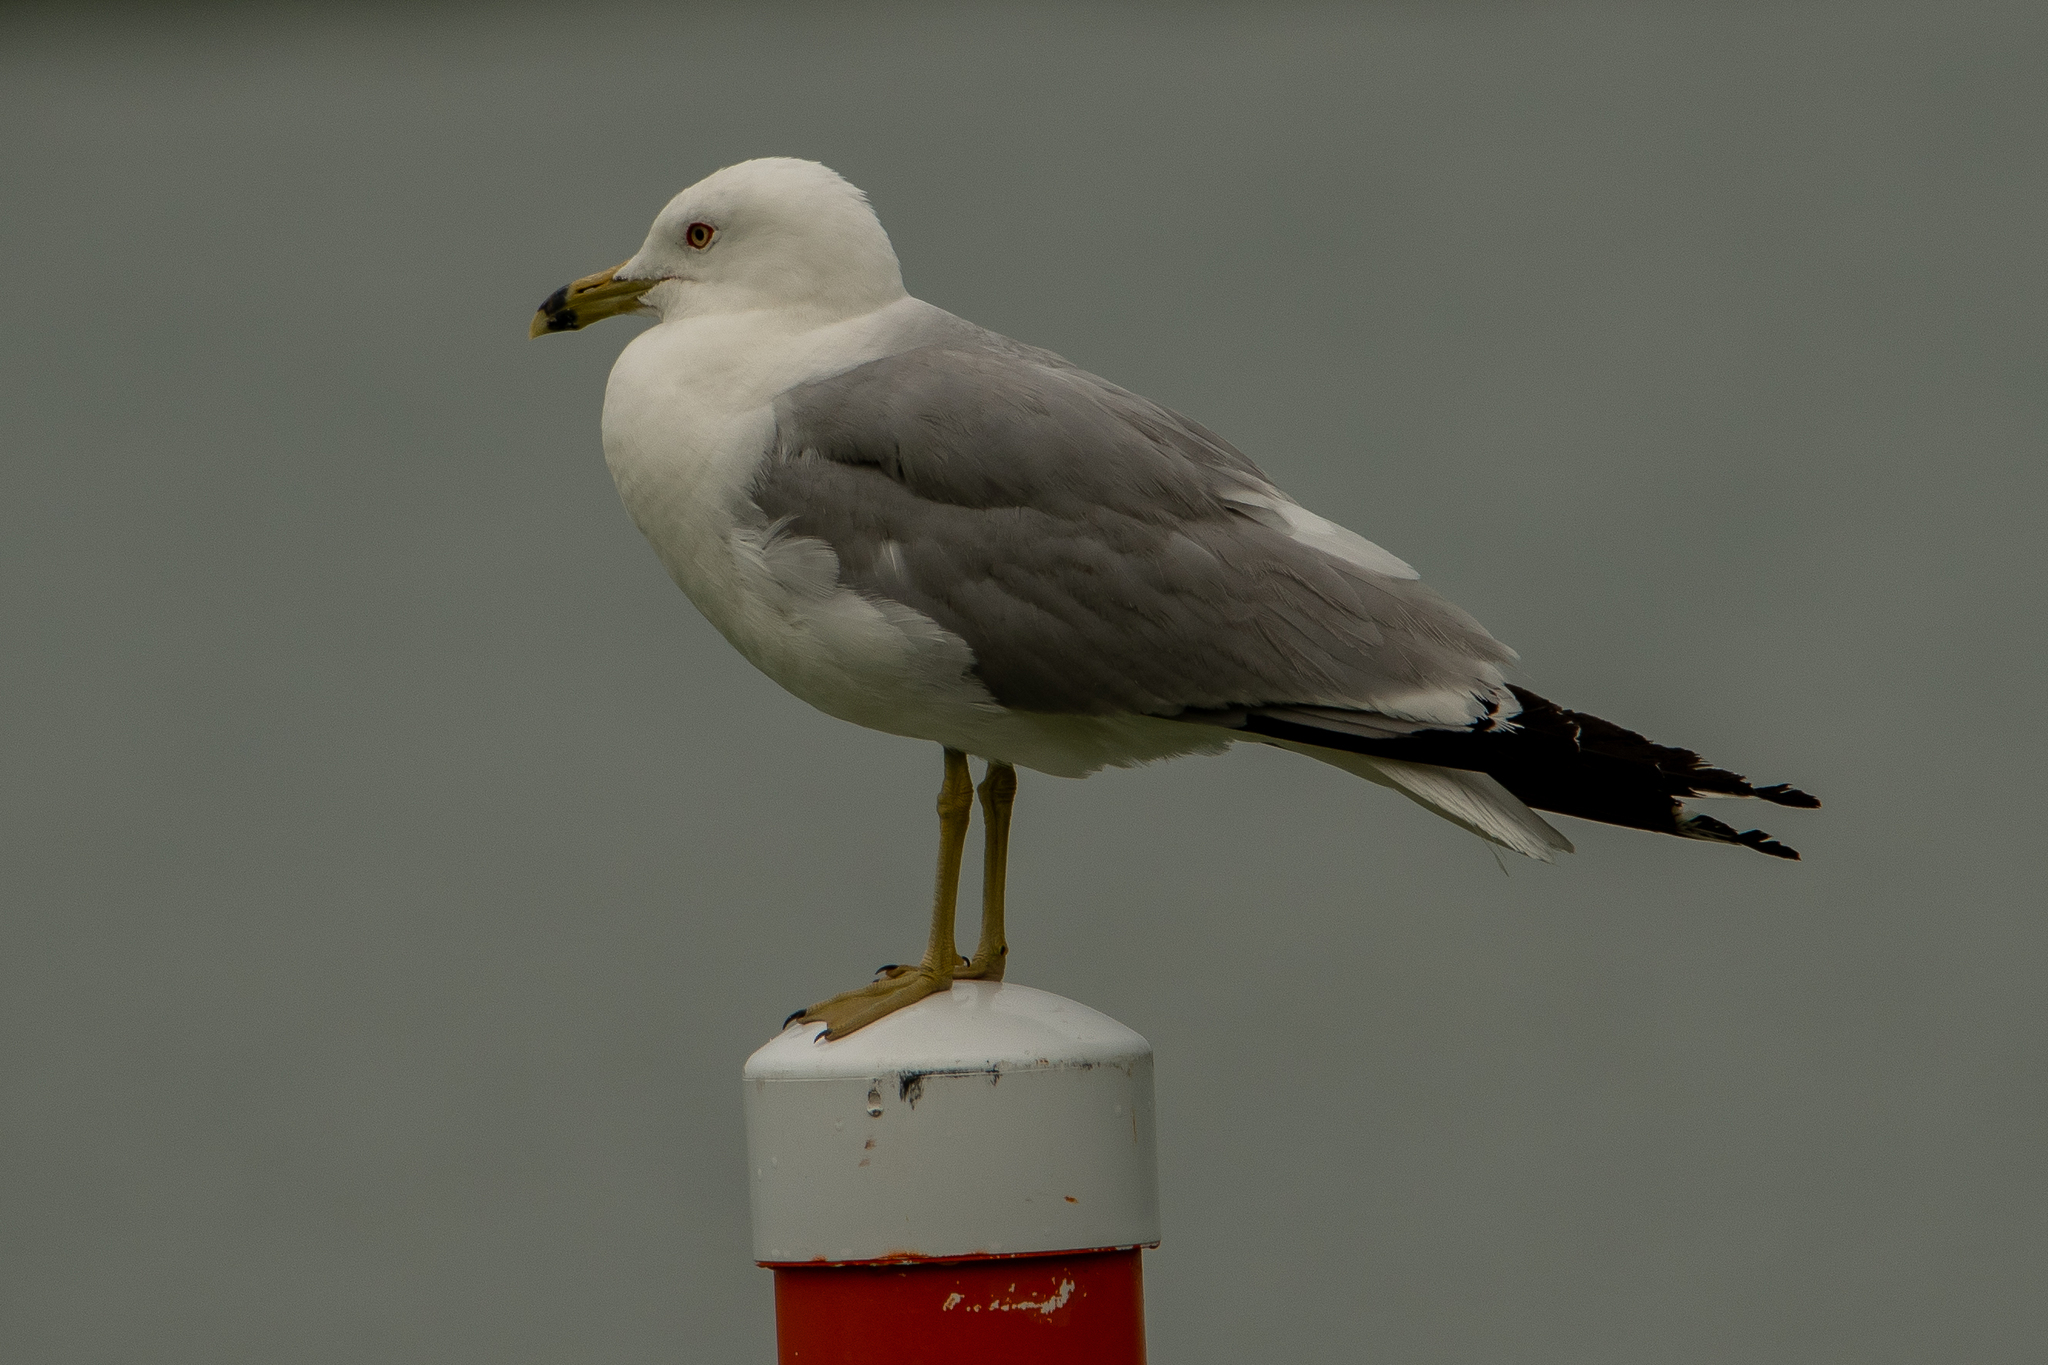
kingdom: Animalia
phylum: Chordata
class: Aves
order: Charadriiformes
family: Laridae
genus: Larus
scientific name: Larus delawarensis
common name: Ring-billed gull
